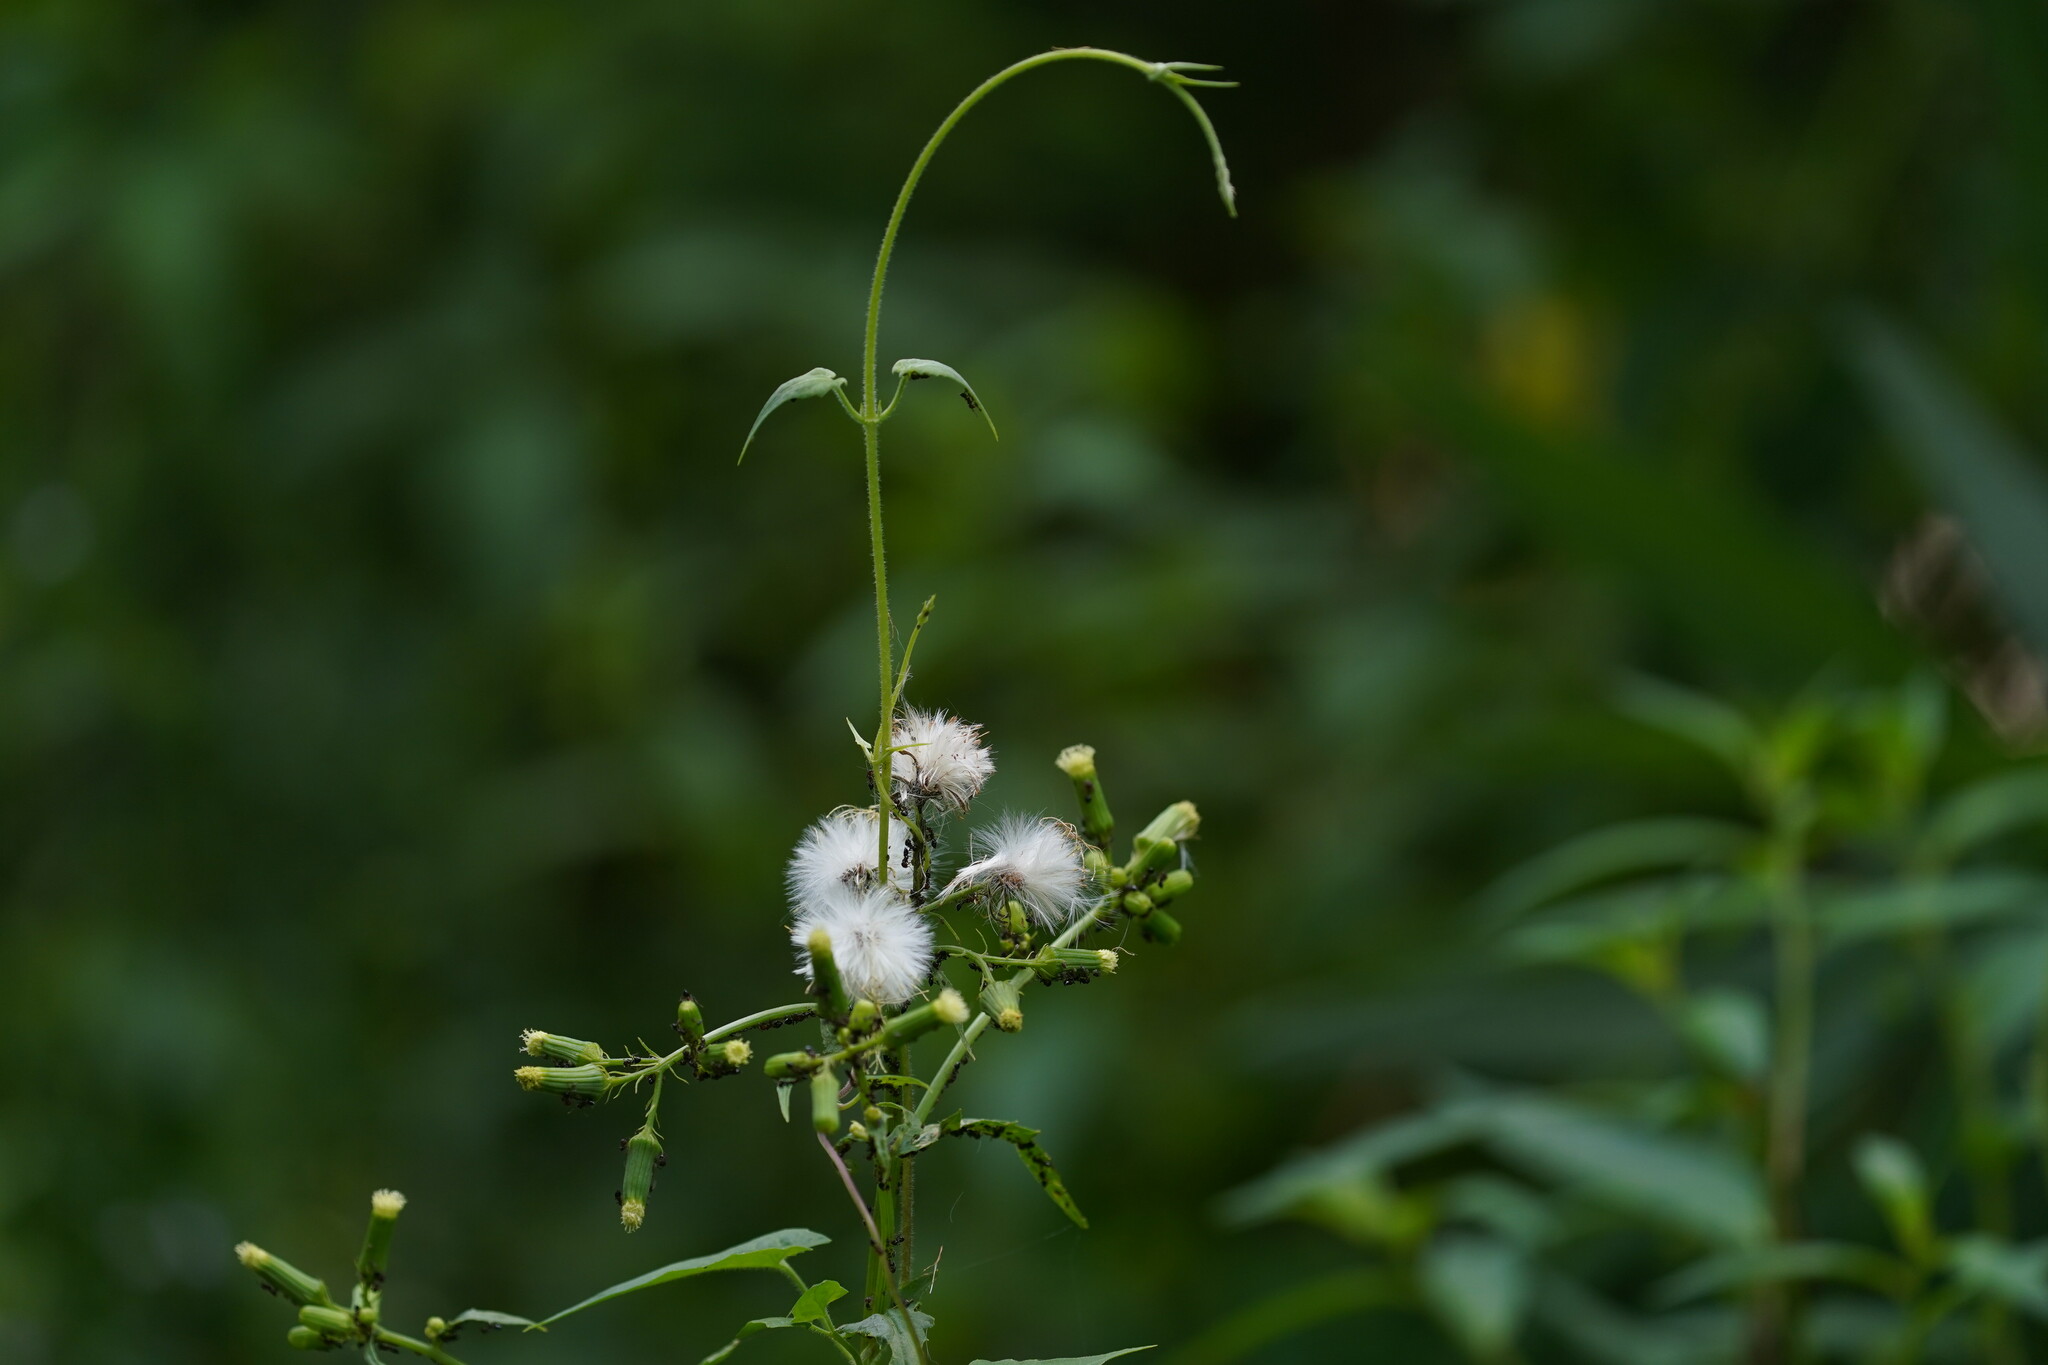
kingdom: Plantae
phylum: Tracheophyta
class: Magnoliopsida
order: Asterales
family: Asteraceae
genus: Erechtites
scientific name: Erechtites hieraciifolius
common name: American burnweed
